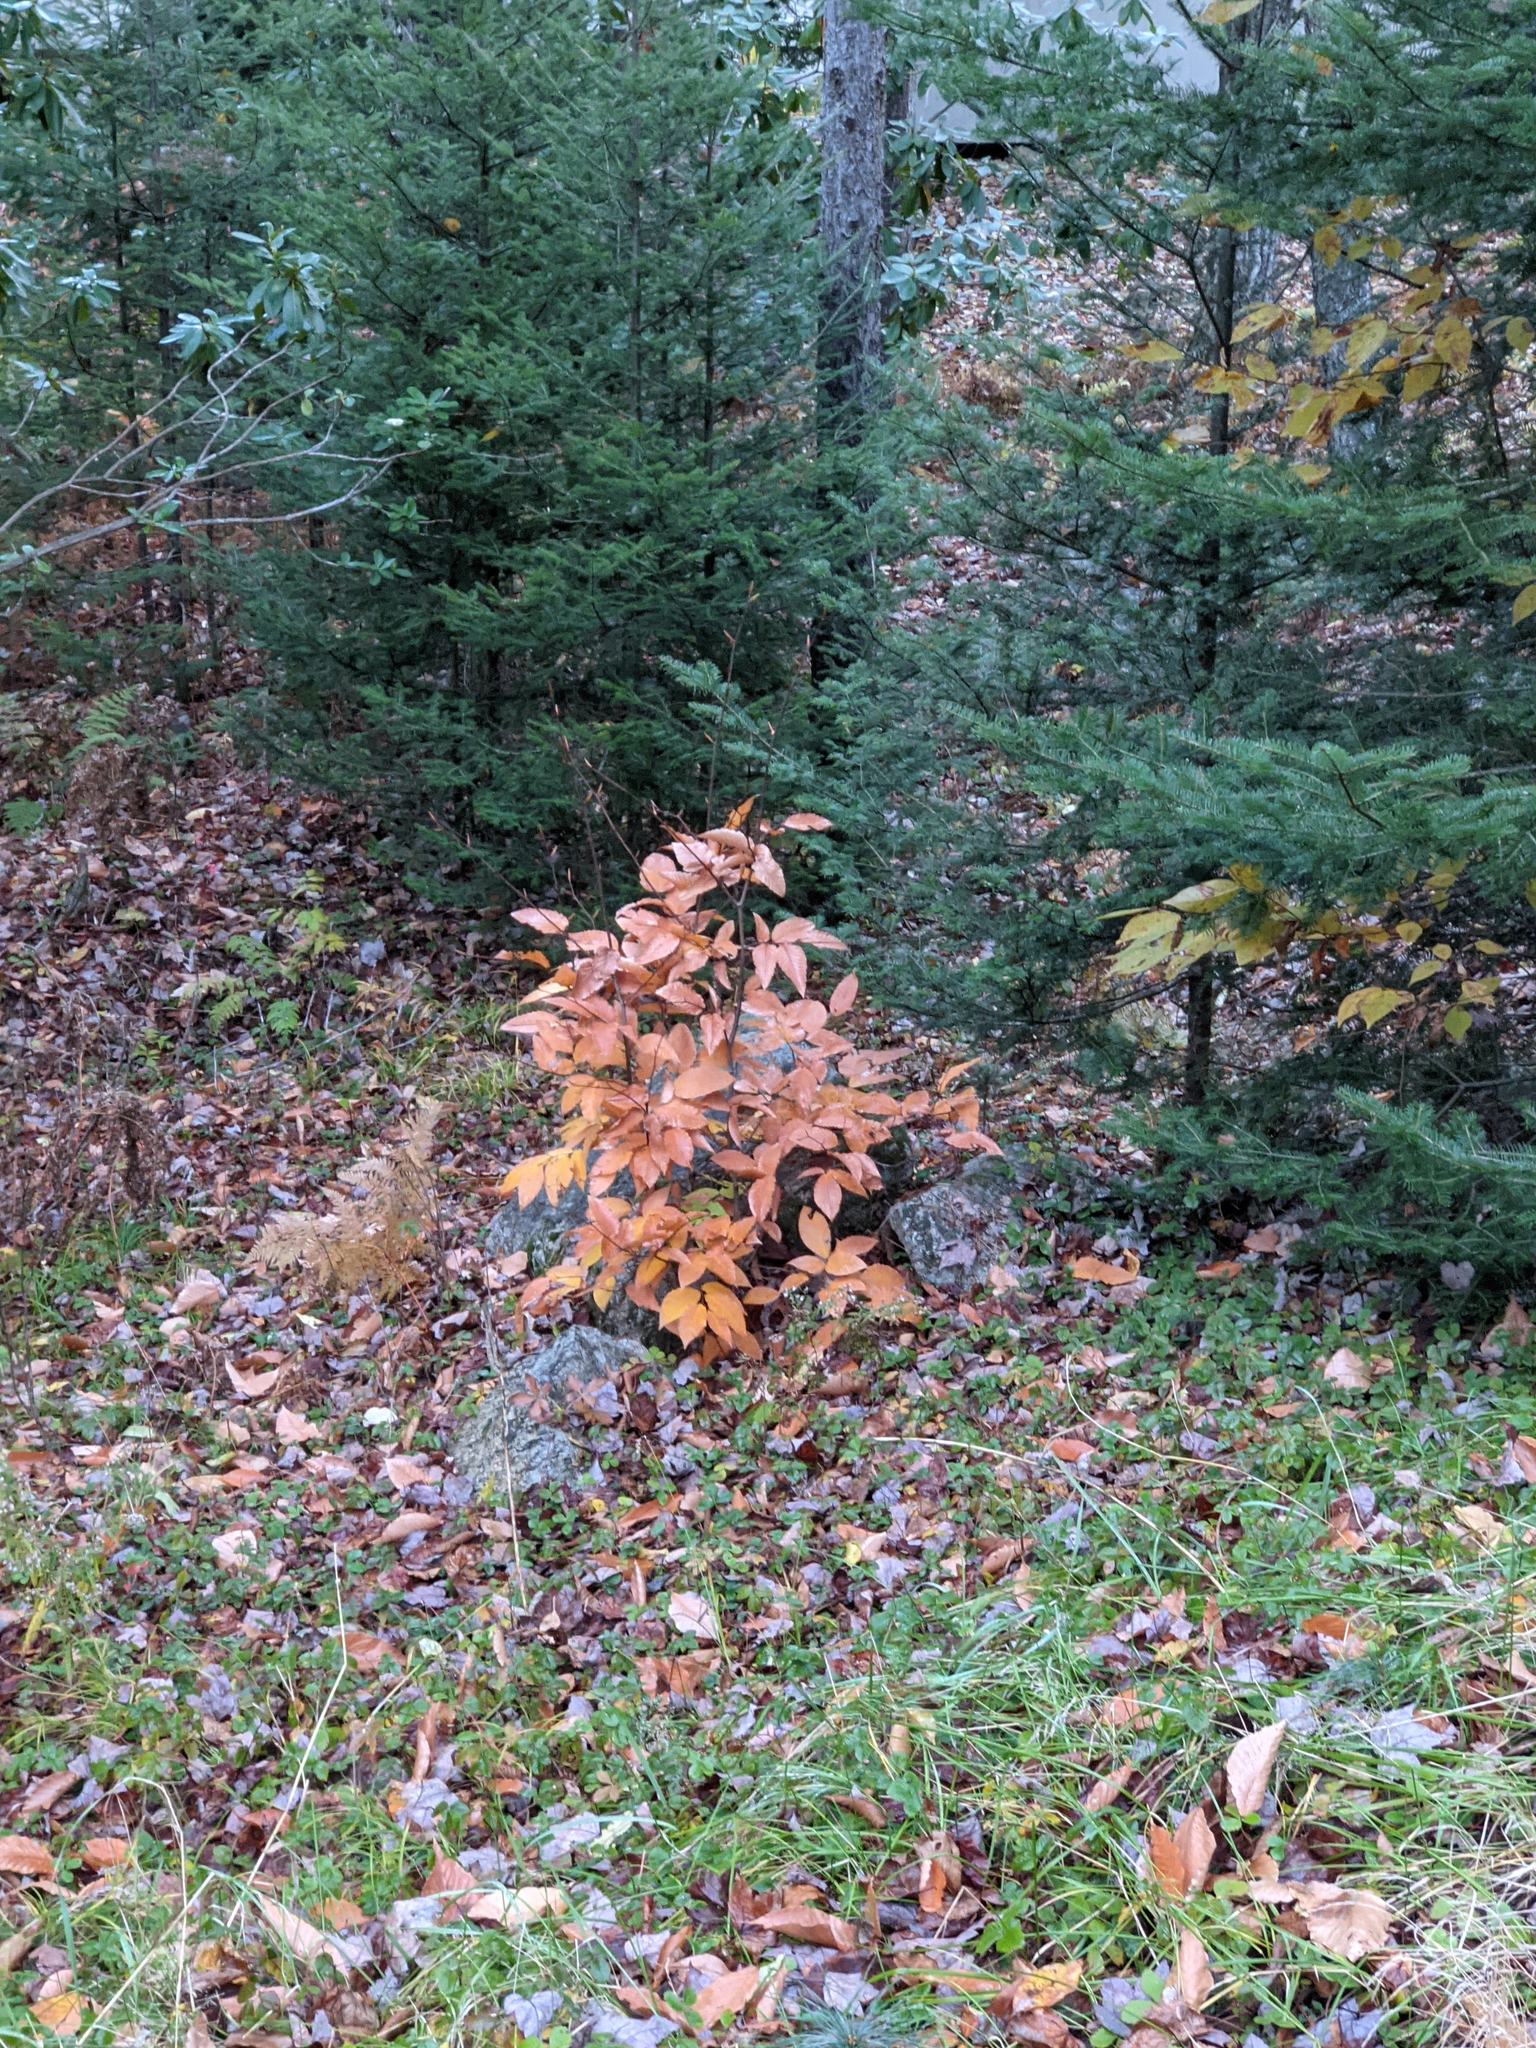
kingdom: Plantae
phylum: Tracheophyta
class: Magnoliopsida
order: Fagales
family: Fagaceae
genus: Fagus
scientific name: Fagus grandifolia
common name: American beech
